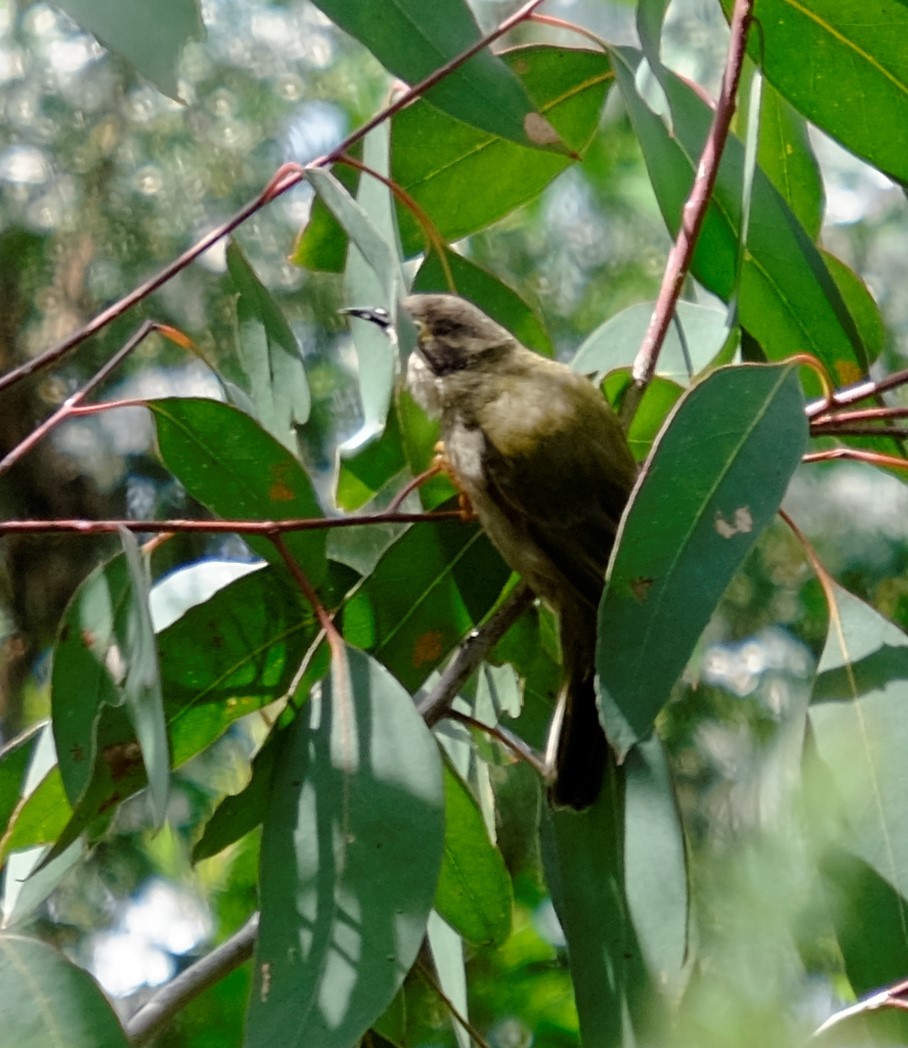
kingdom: Animalia
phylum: Chordata
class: Aves
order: Passeriformes
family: Meliphagidae
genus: Melithreptus
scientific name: Melithreptus brevirostris
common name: Brown-headed honeyeater
